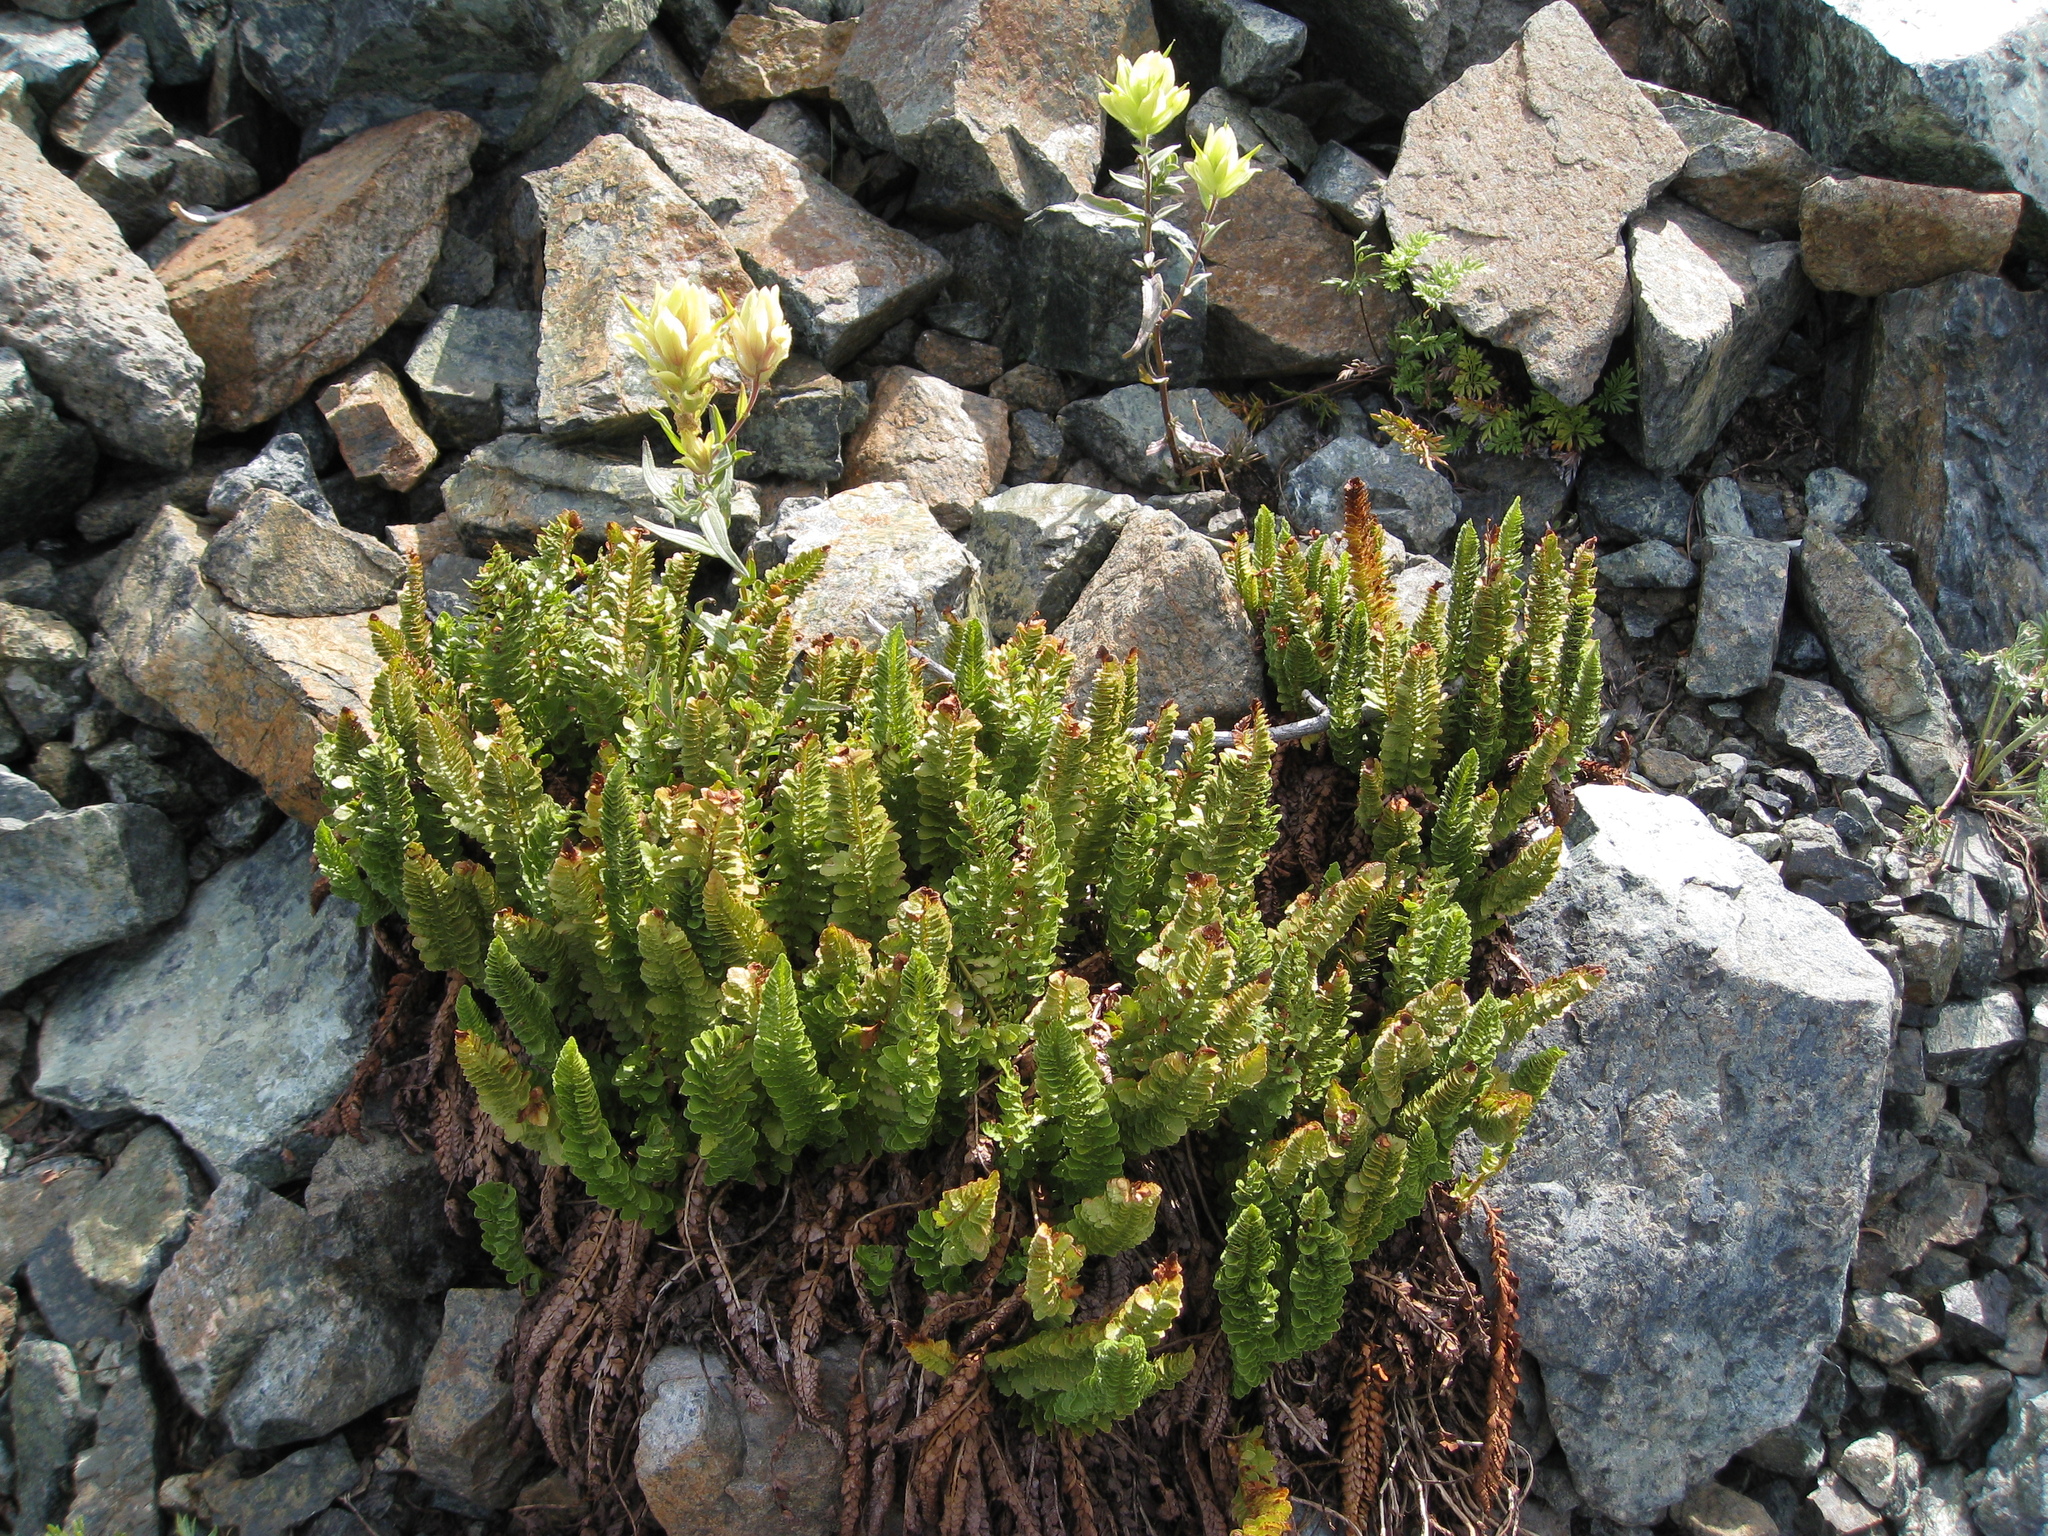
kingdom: Plantae
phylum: Tracheophyta
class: Polypodiopsida
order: Polypodiales
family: Dryopteridaceae
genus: Polystichum
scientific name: Polystichum lemmonii
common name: Lemmon's holly fern
